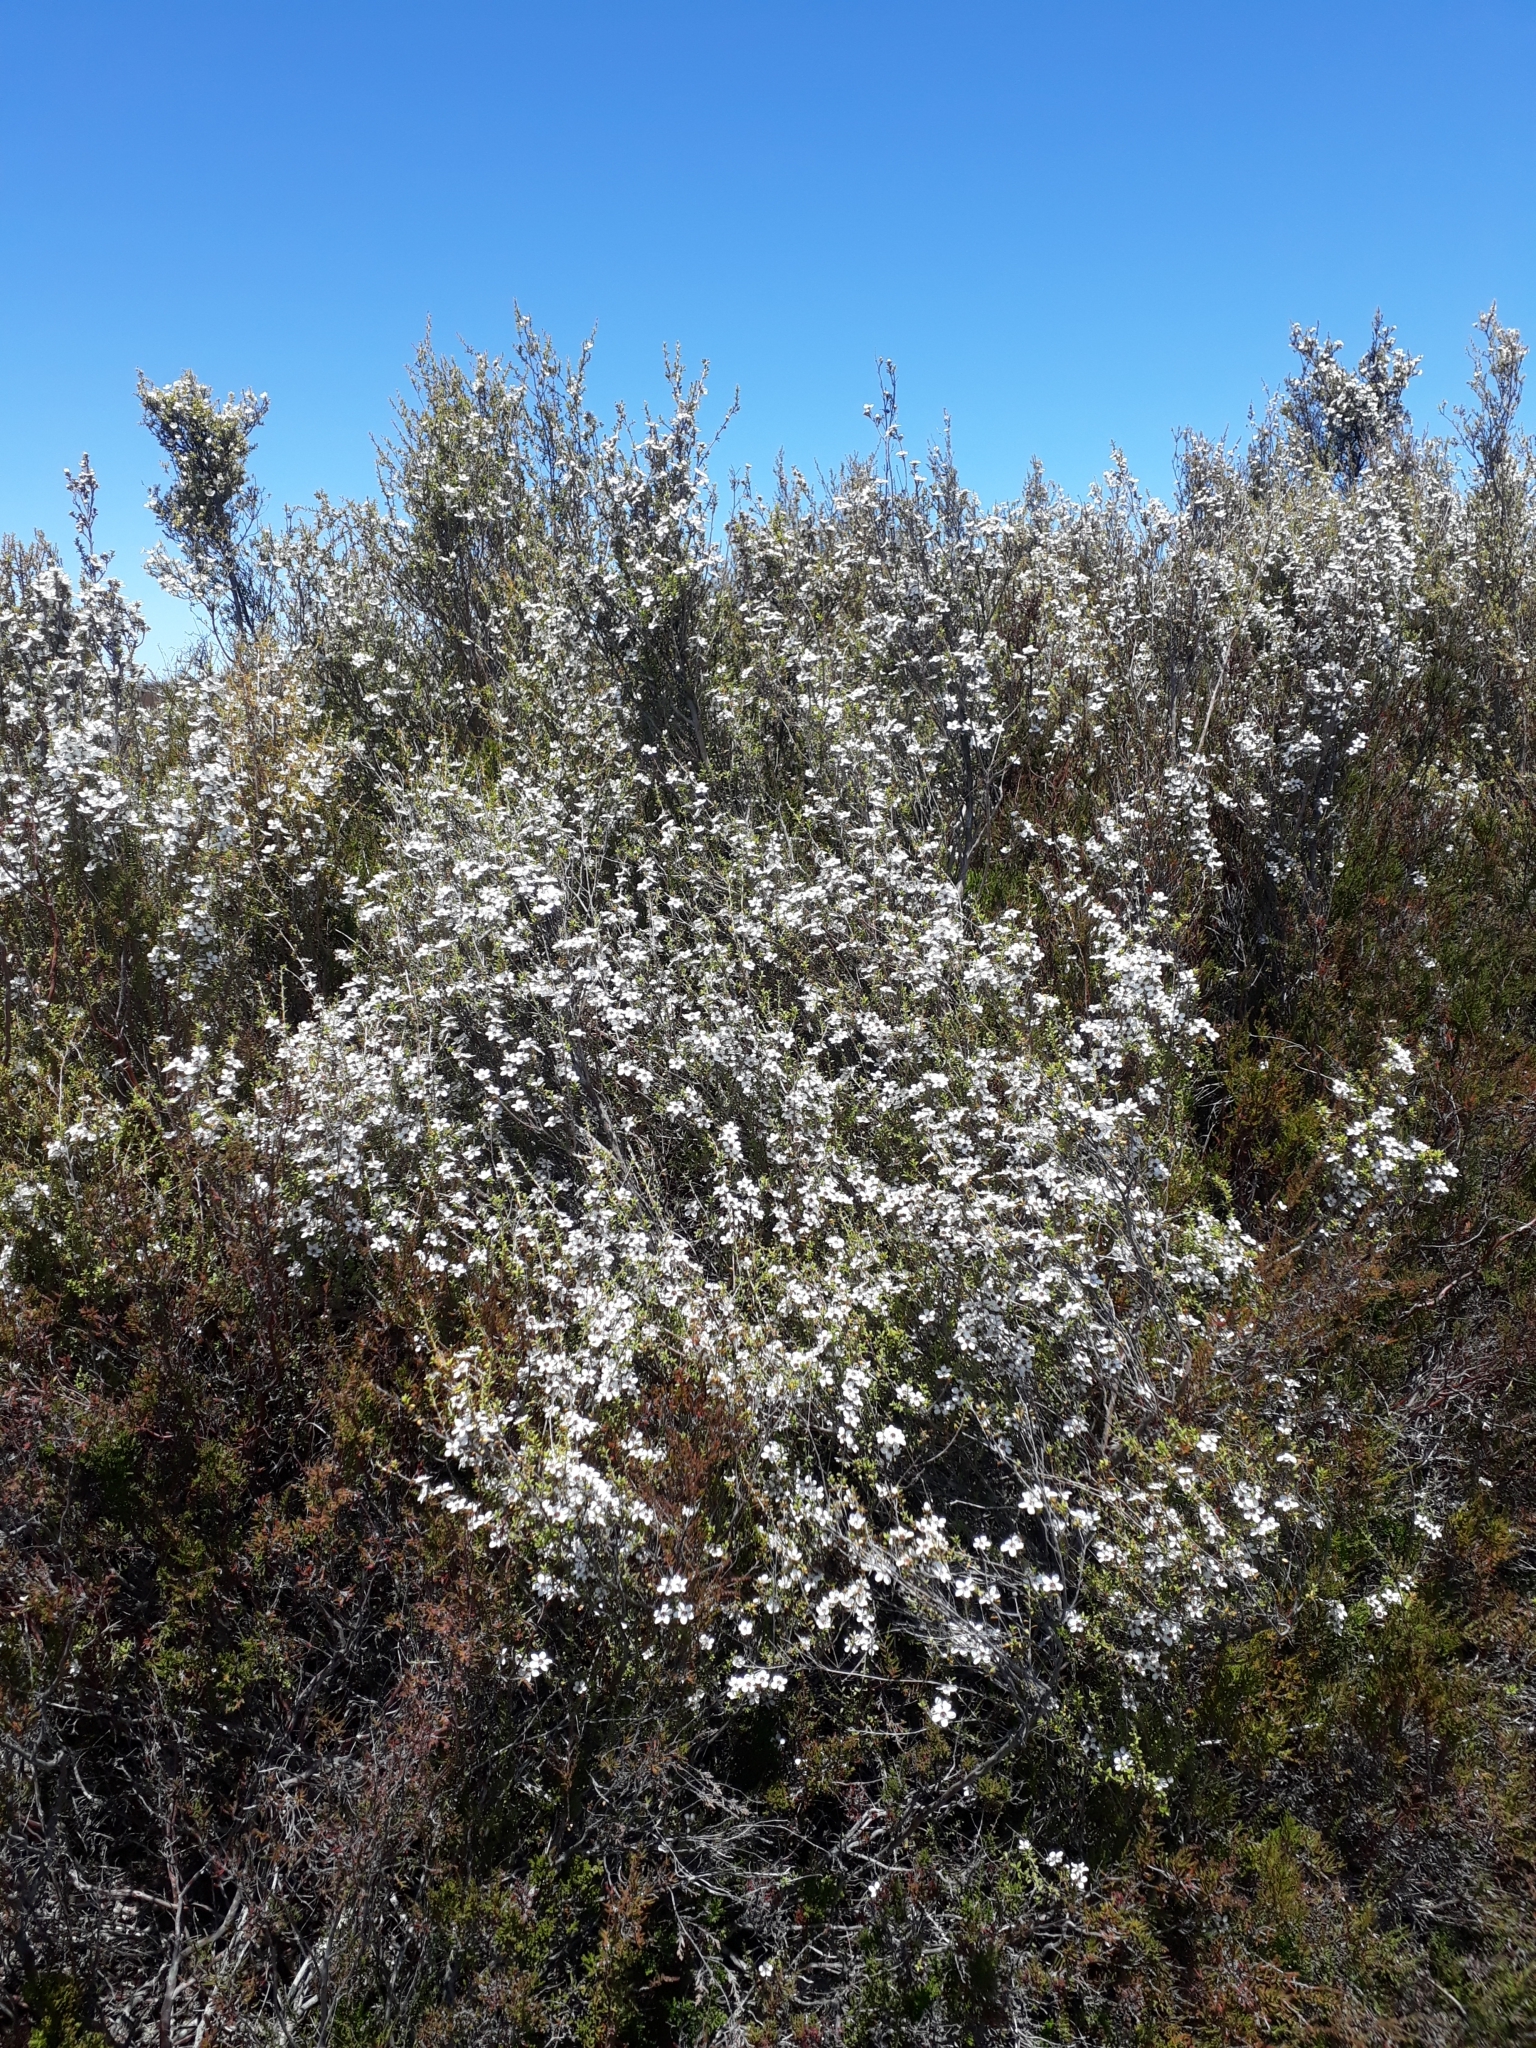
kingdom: Plantae
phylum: Tracheophyta
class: Magnoliopsida
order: Myrtales
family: Myrtaceae
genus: Leptospermum
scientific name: Leptospermum scoparium
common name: Broom tea-tree
